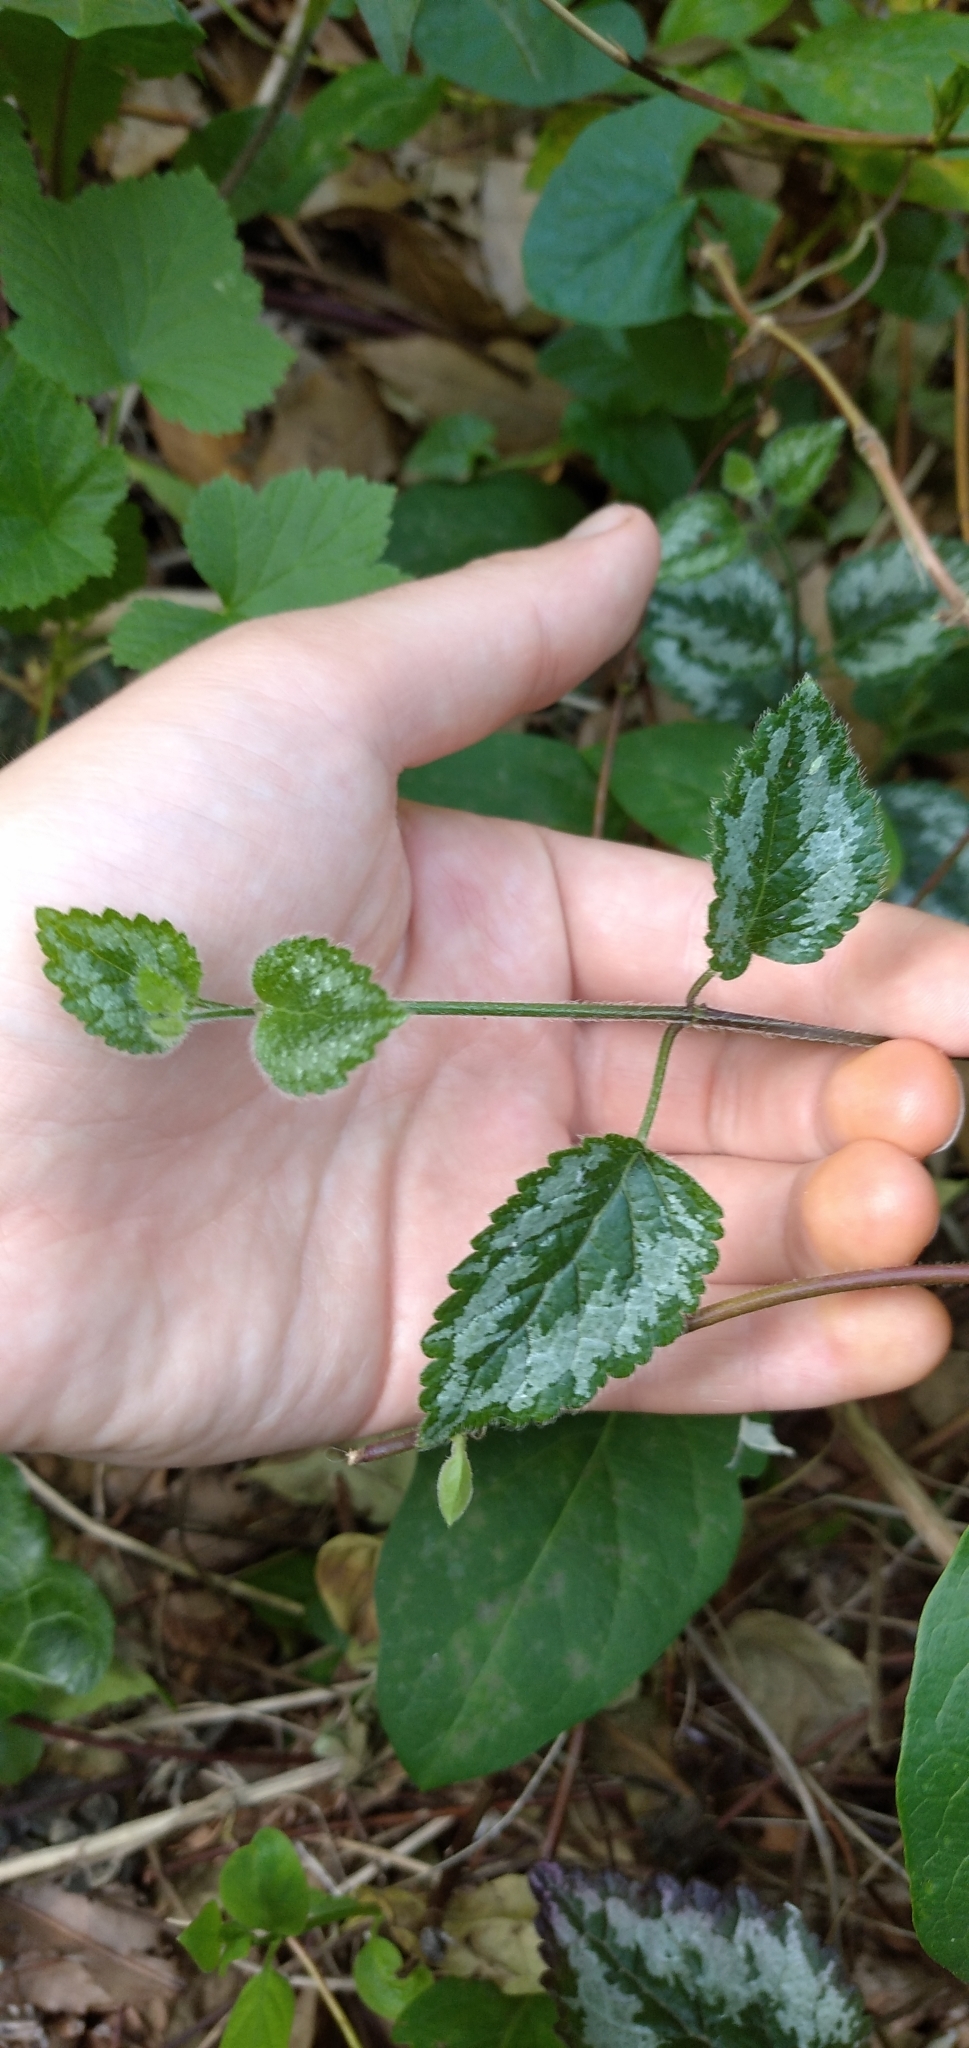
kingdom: Plantae
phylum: Tracheophyta
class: Magnoliopsida
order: Lamiales
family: Lamiaceae
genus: Lamium
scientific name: Lamium galeobdolon
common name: Yellow archangel
